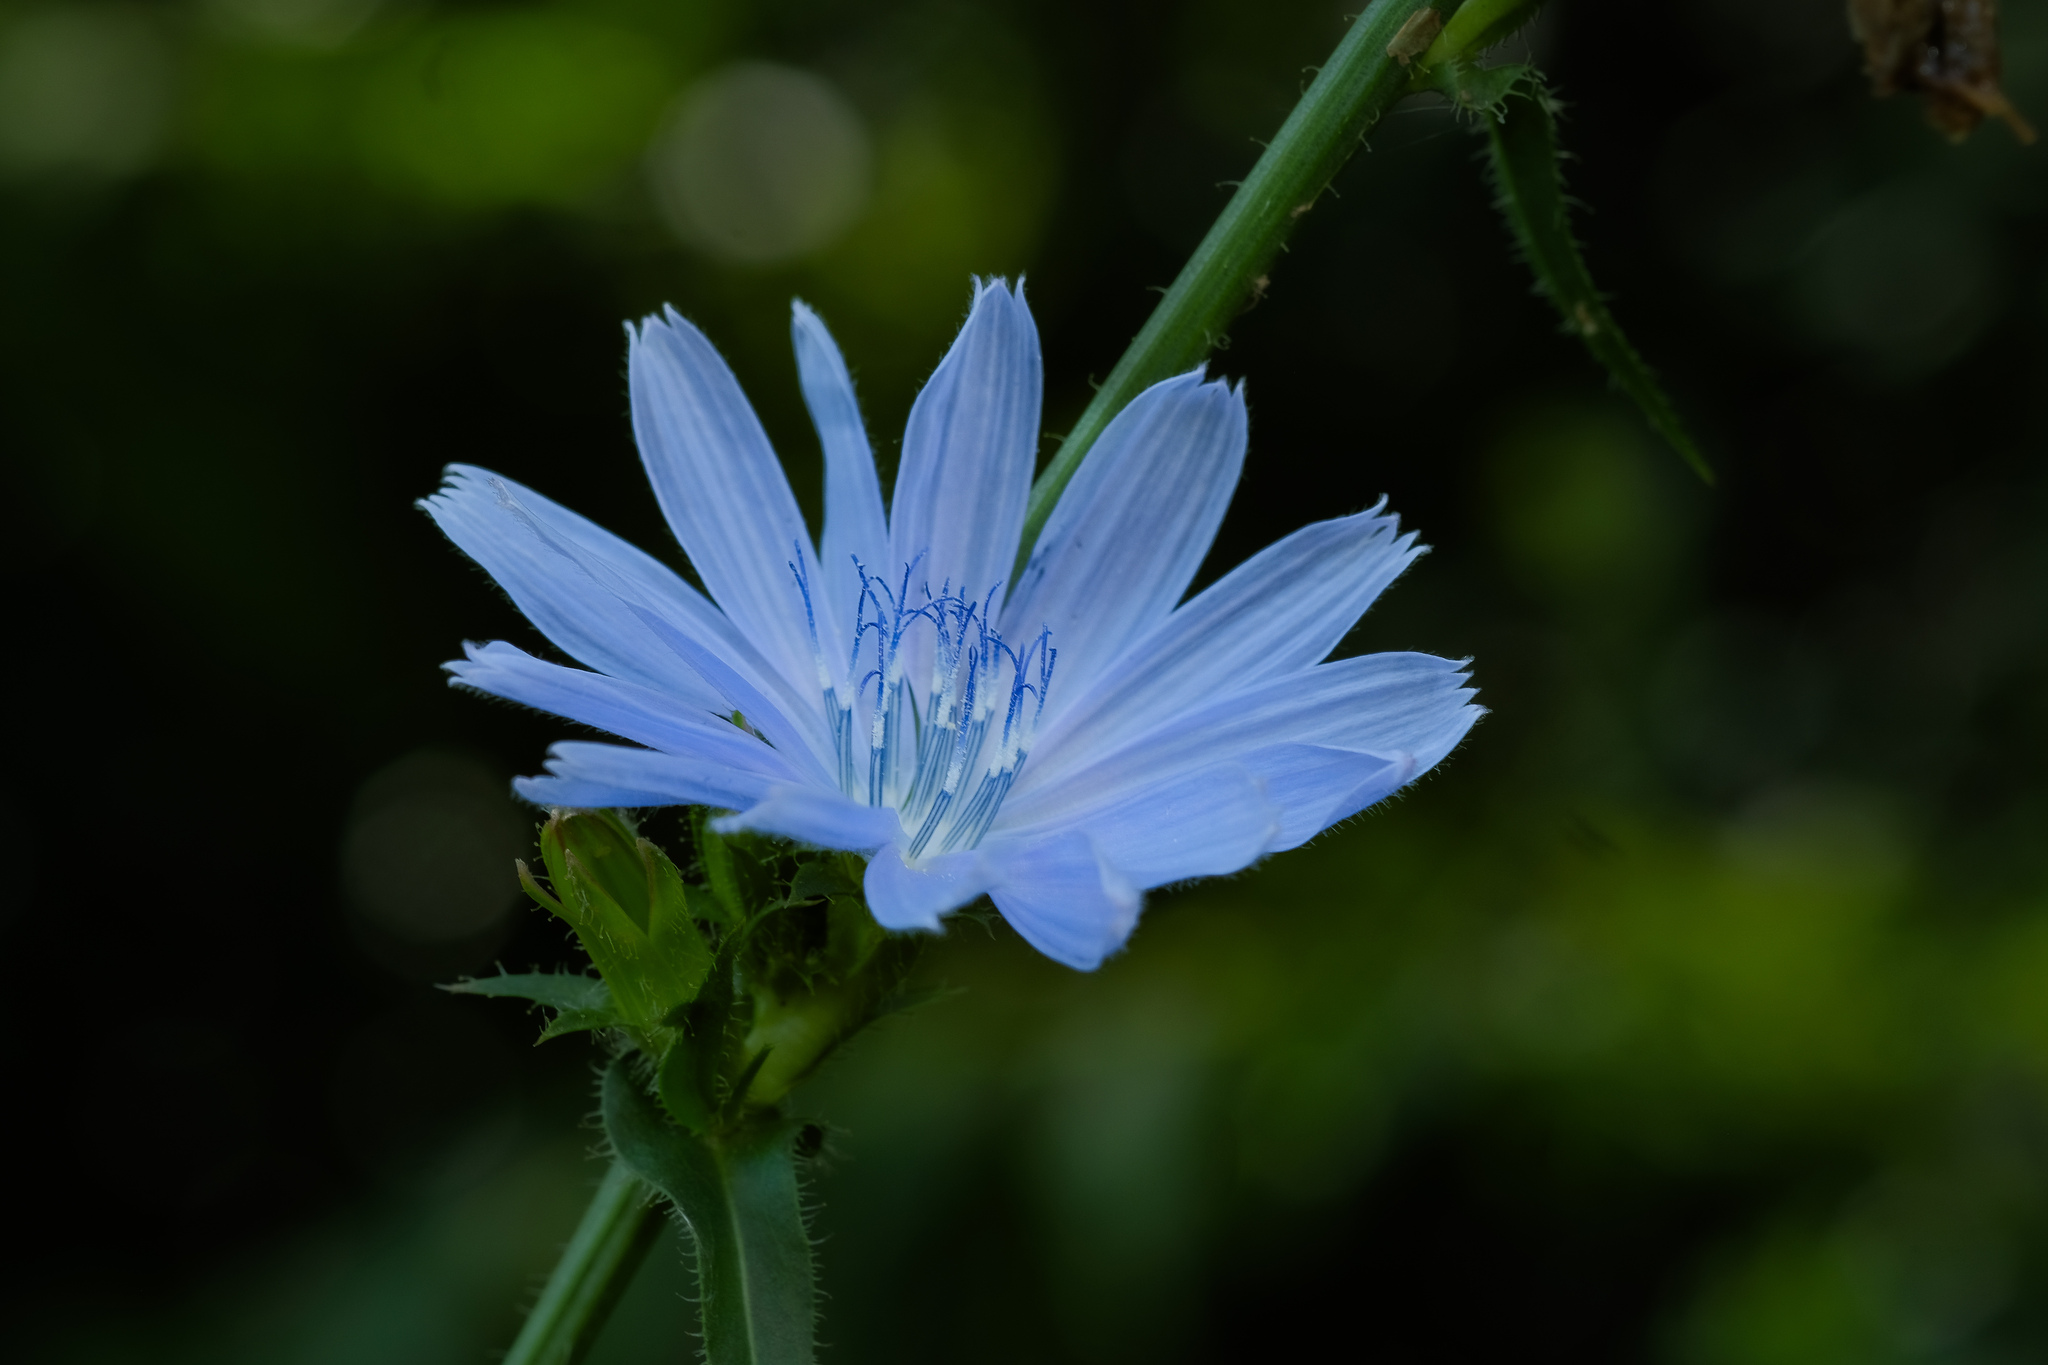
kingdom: Plantae
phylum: Tracheophyta
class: Magnoliopsida
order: Asterales
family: Asteraceae
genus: Cichorium
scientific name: Cichorium intybus
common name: Chicory
